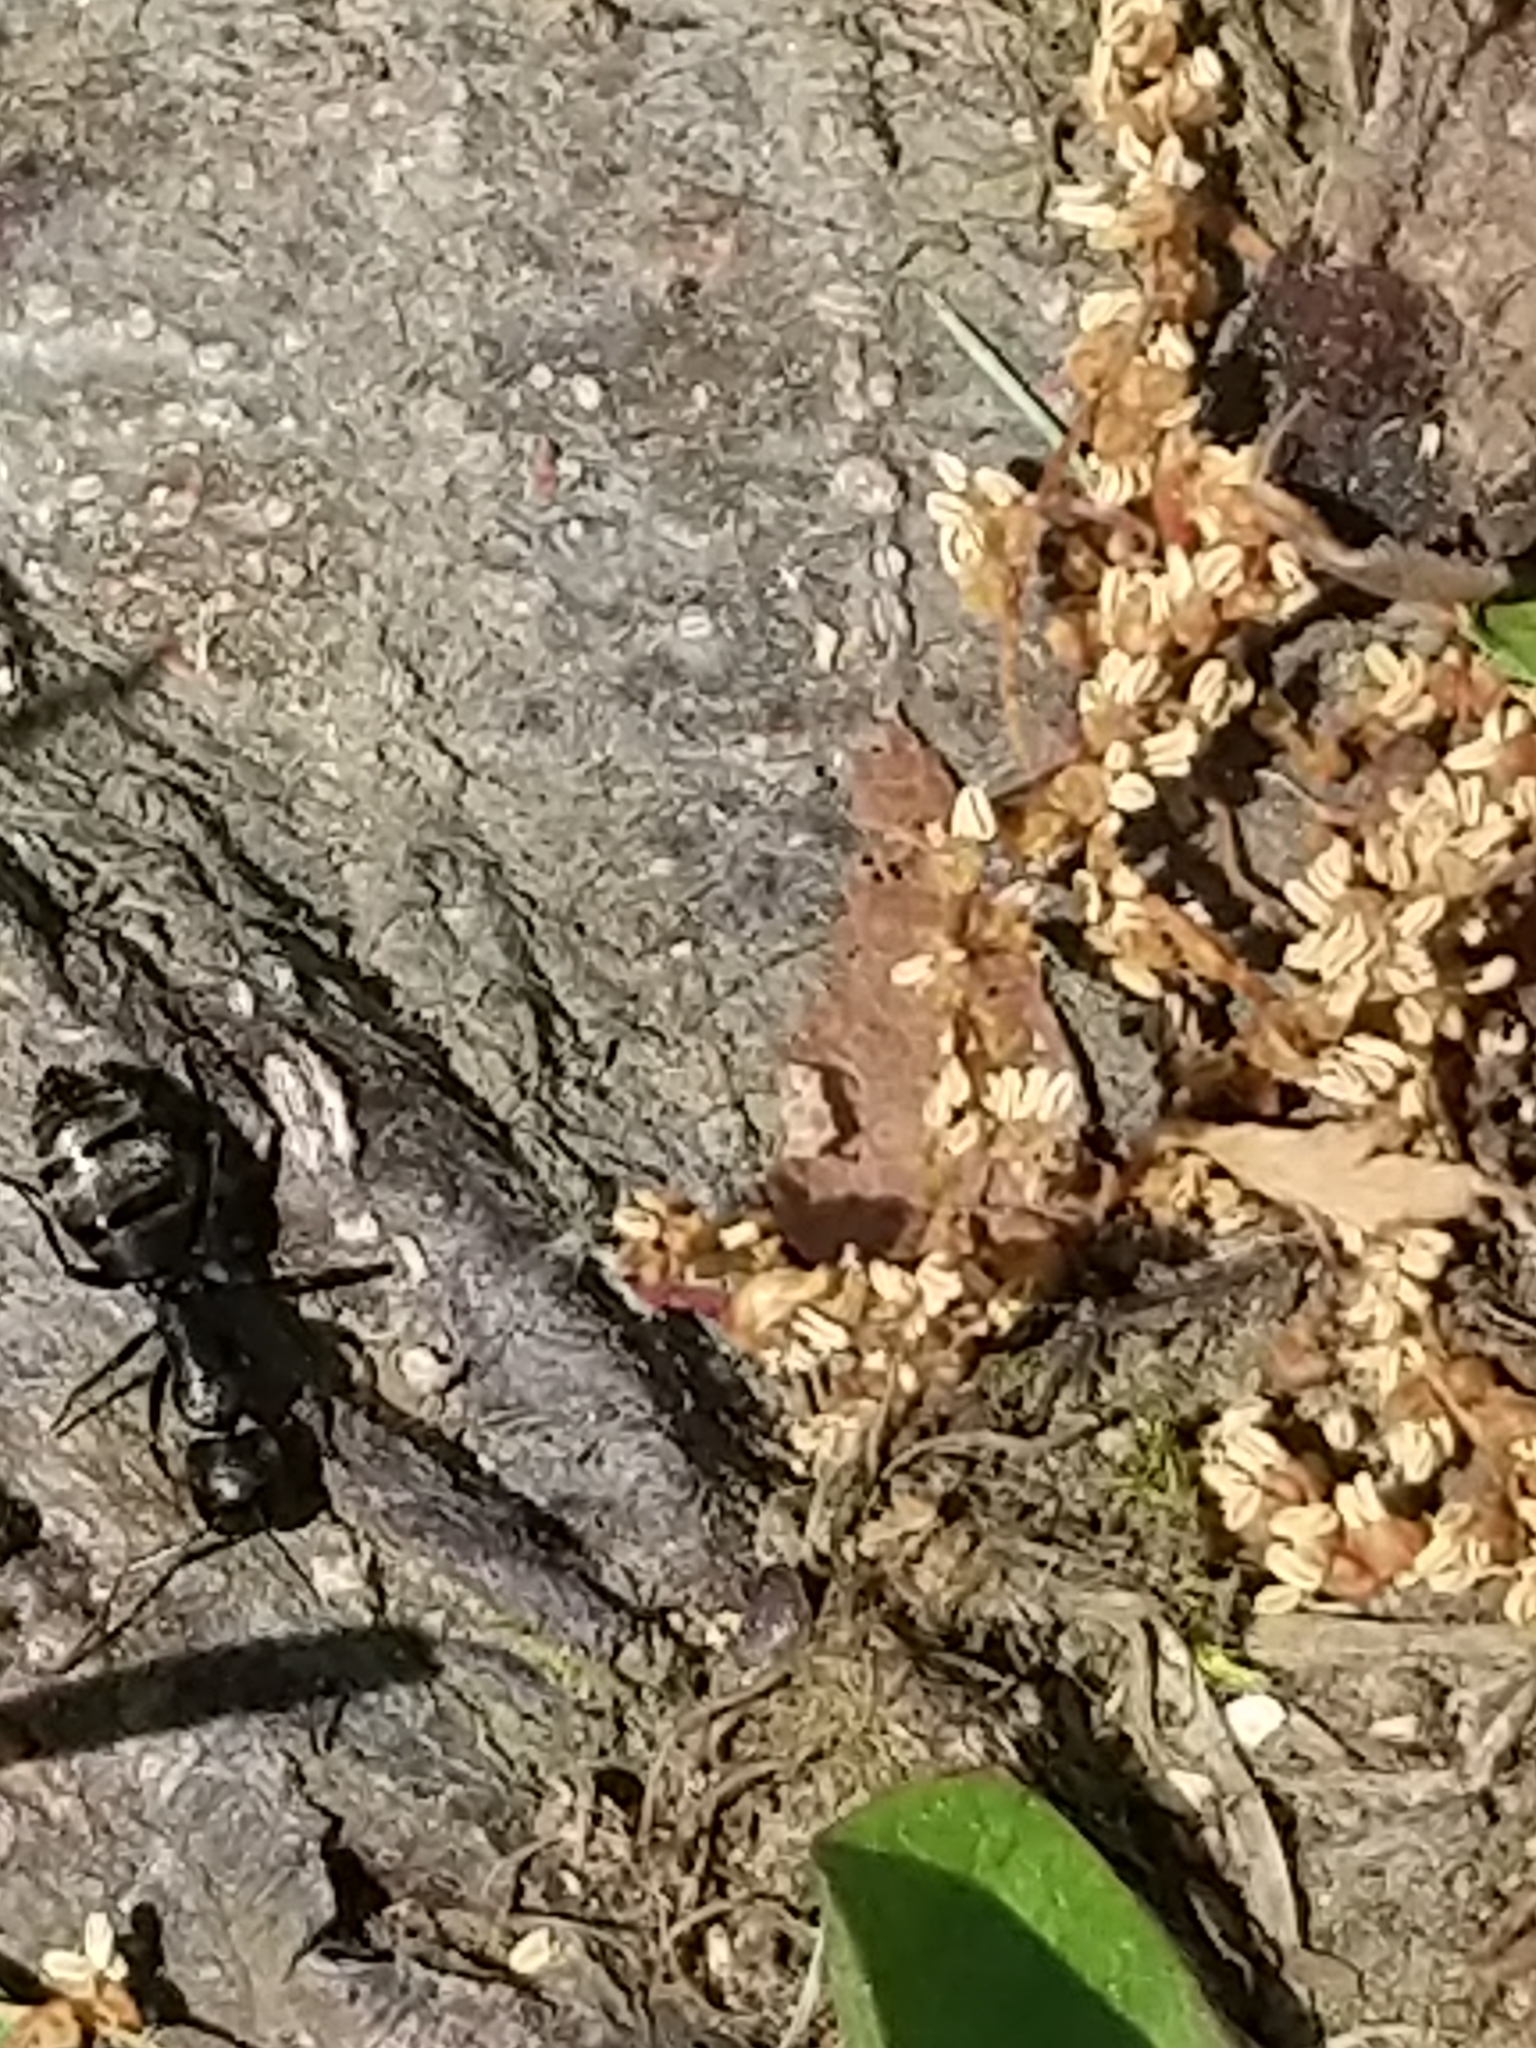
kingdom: Animalia
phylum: Arthropoda
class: Insecta
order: Hymenoptera
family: Formicidae
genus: Camponotus
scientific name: Camponotus pennsylvanicus
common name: Black carpenter ant
